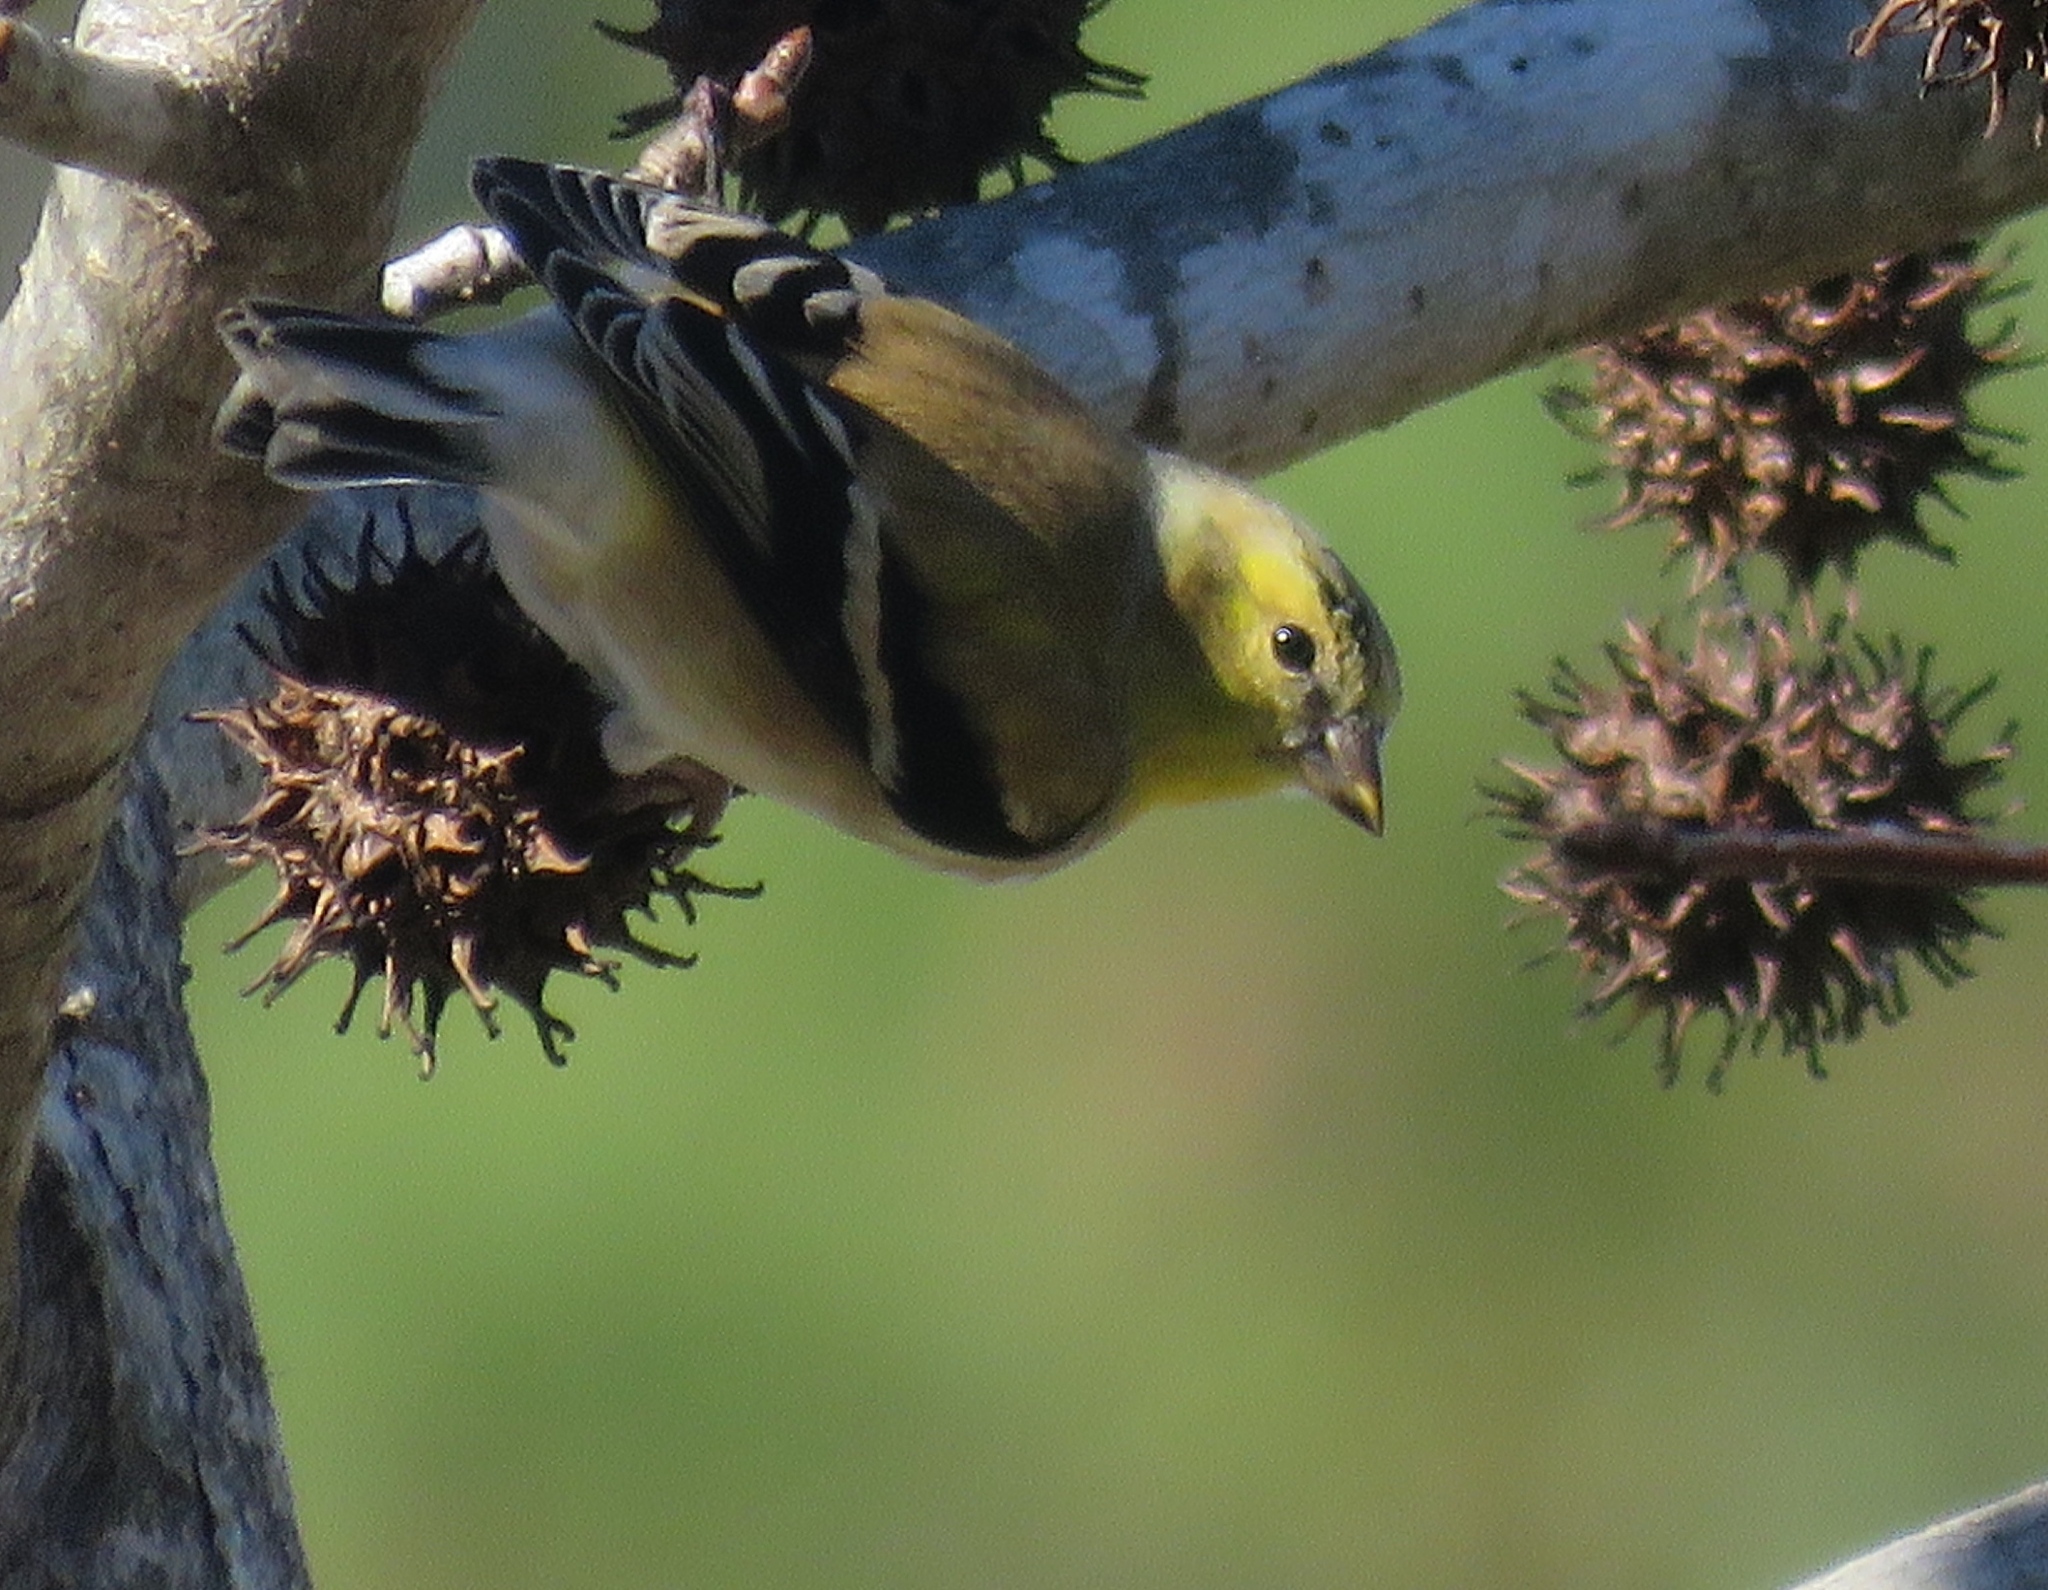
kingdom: Animalia
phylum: Chordata
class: Aves
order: Passeriformes
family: Fringillidae
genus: Spinus
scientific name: Spinus tristis
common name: American goldfinch
